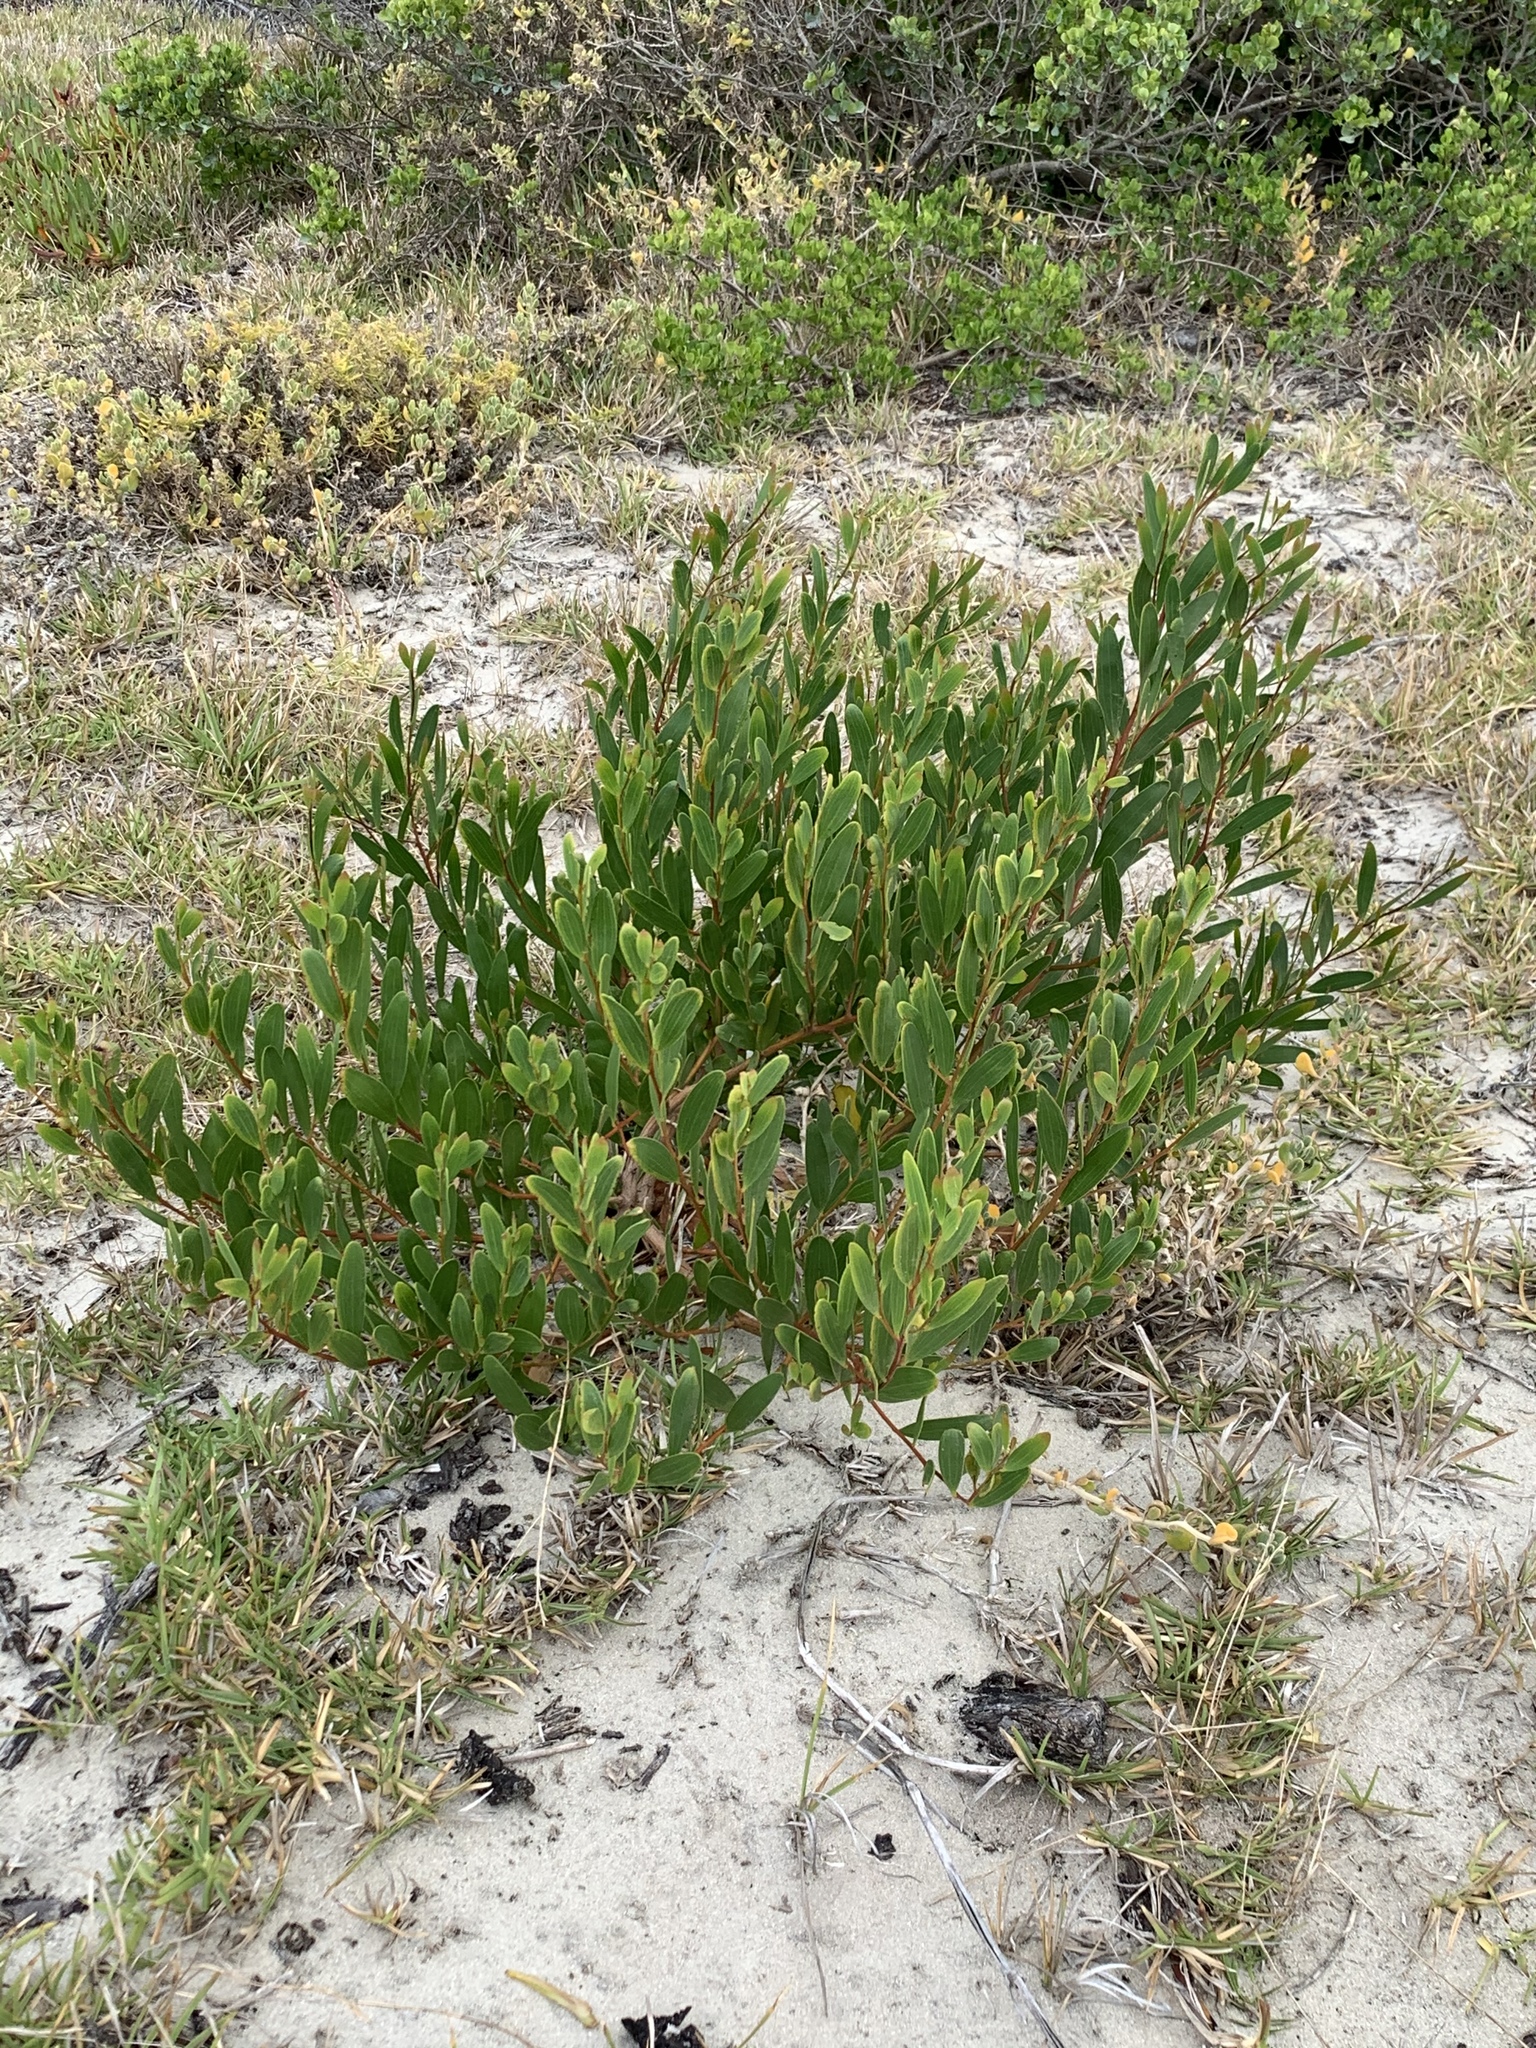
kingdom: Plantae
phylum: Tracheophyta
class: Magnoliopsida
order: Fabales
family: Fabaceae
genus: Acacia
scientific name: Acacia cyclops
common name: Coastal wattle
